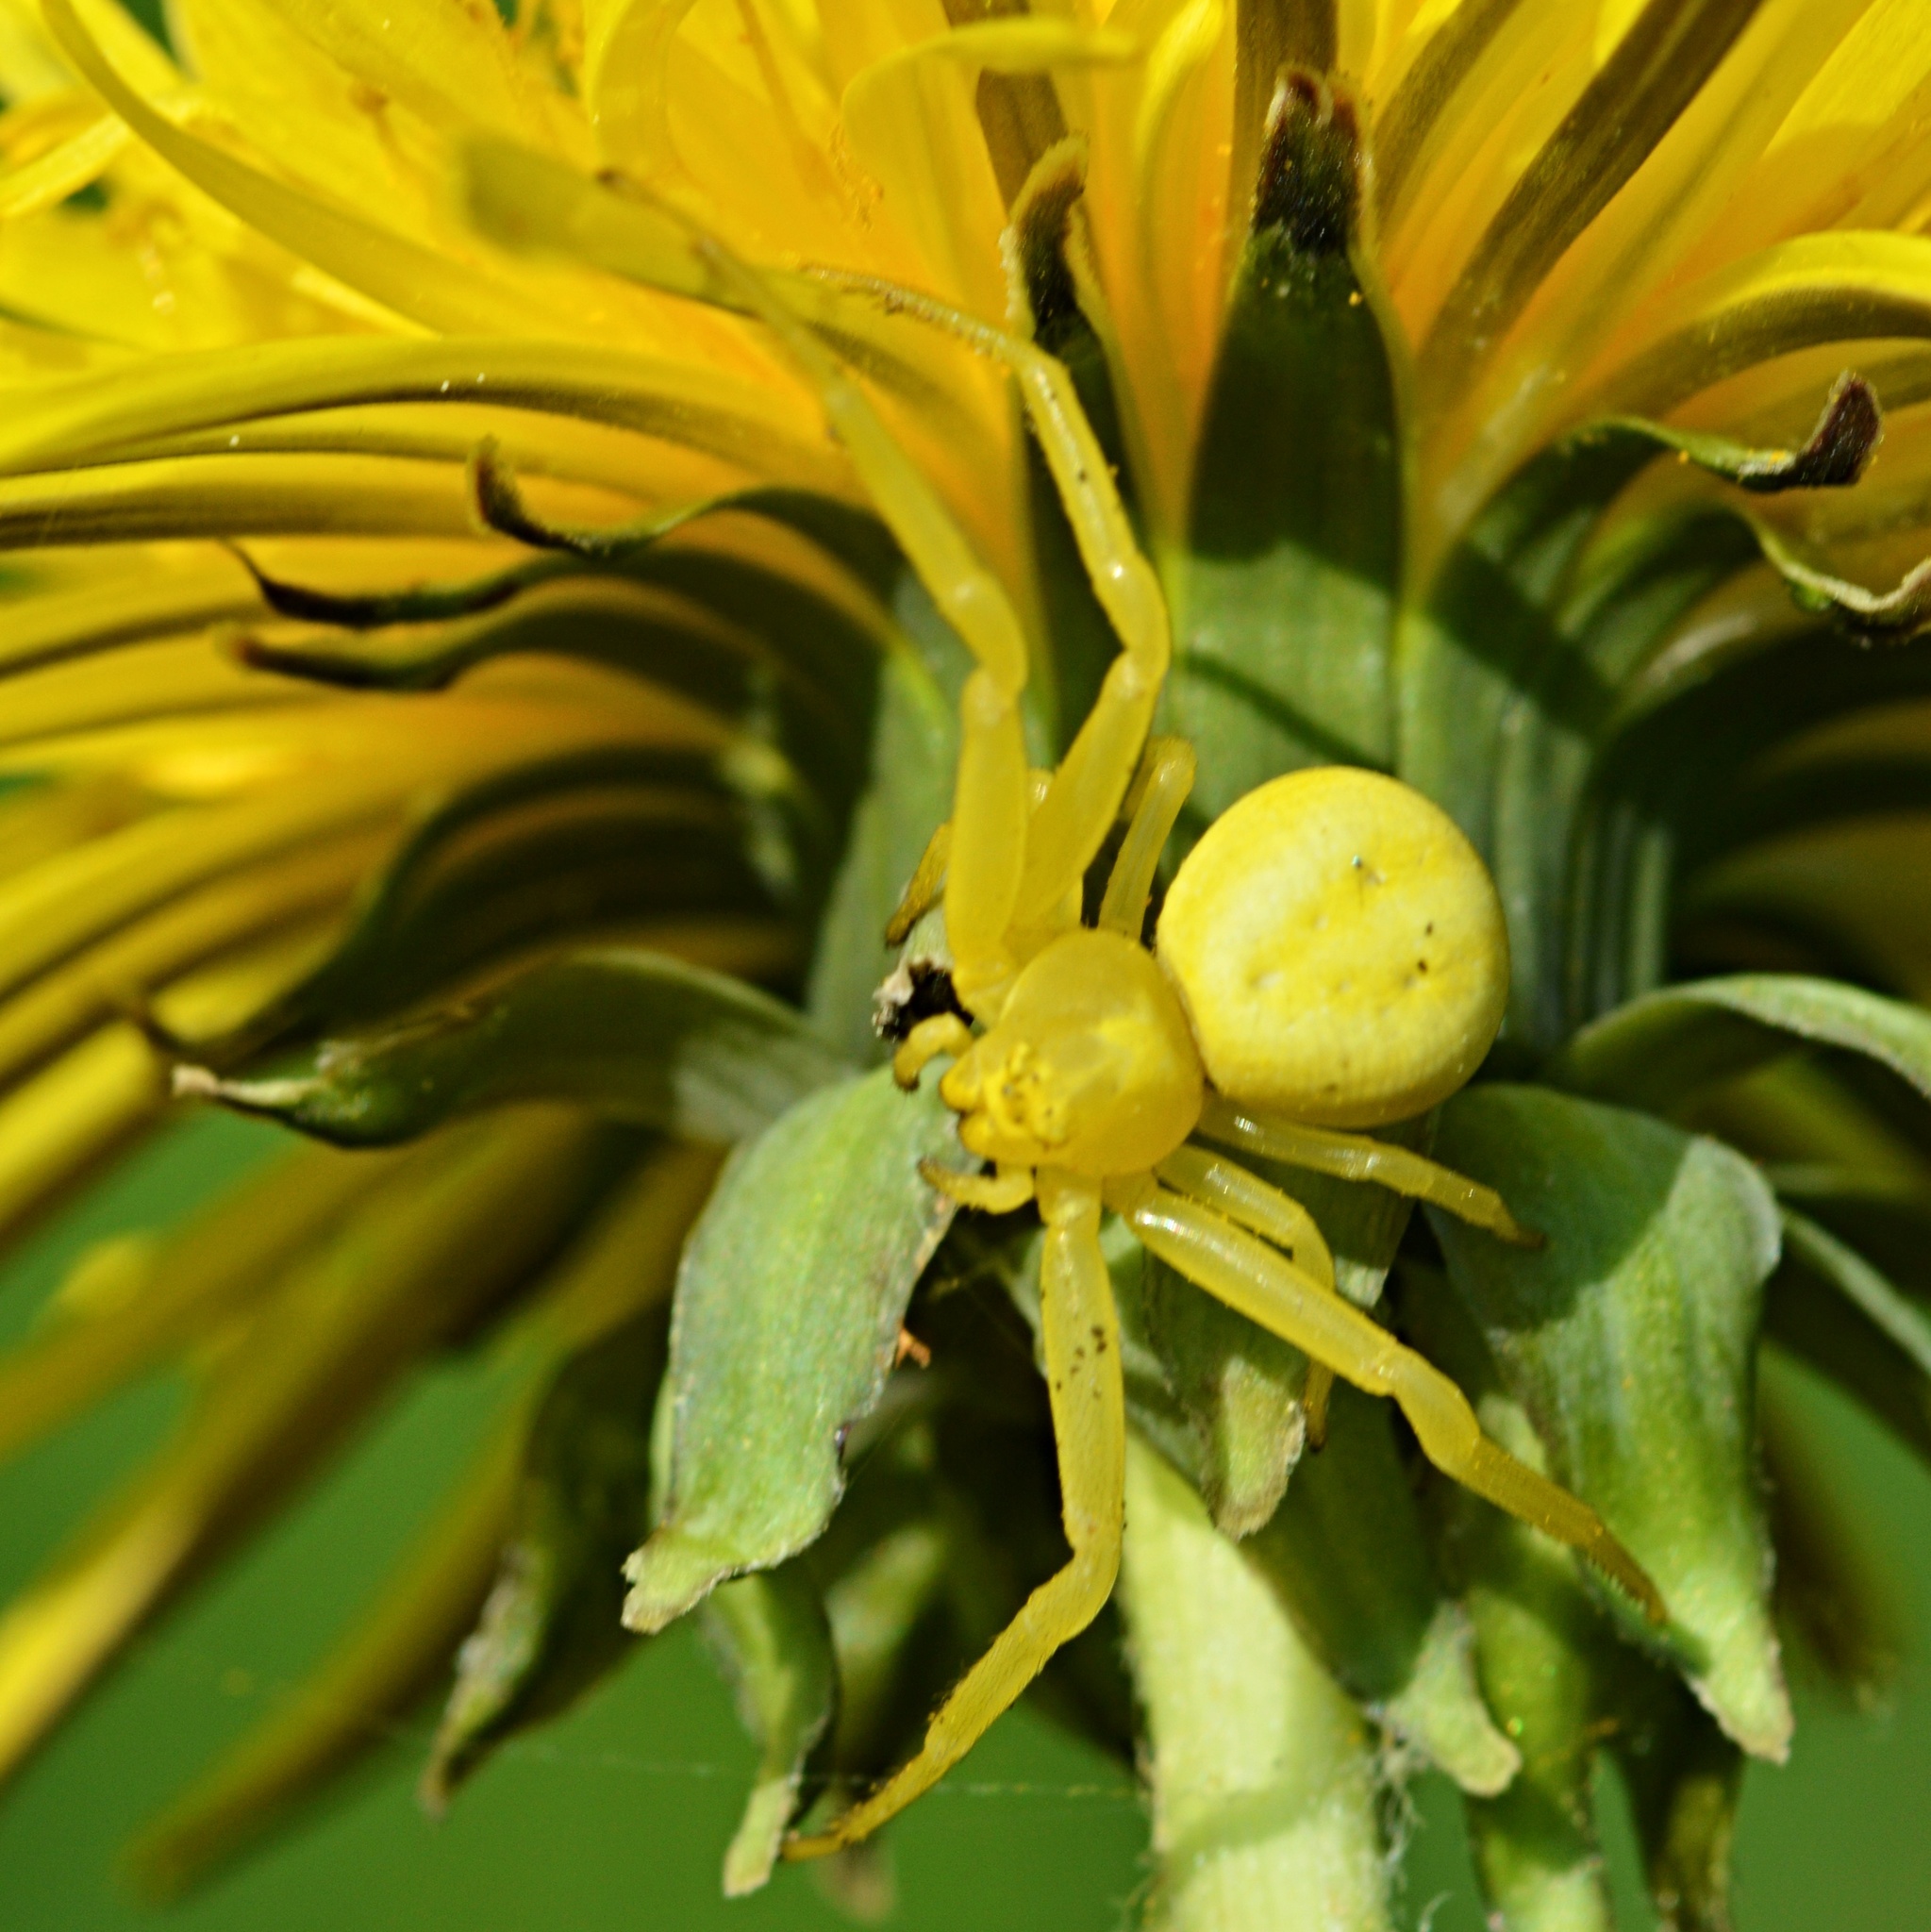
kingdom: Animalia
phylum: Arthropoda
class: Arachnida
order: Araneae
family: Thomisidae
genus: Misumena
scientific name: Misumena vatia
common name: Goldenrod crab spider
